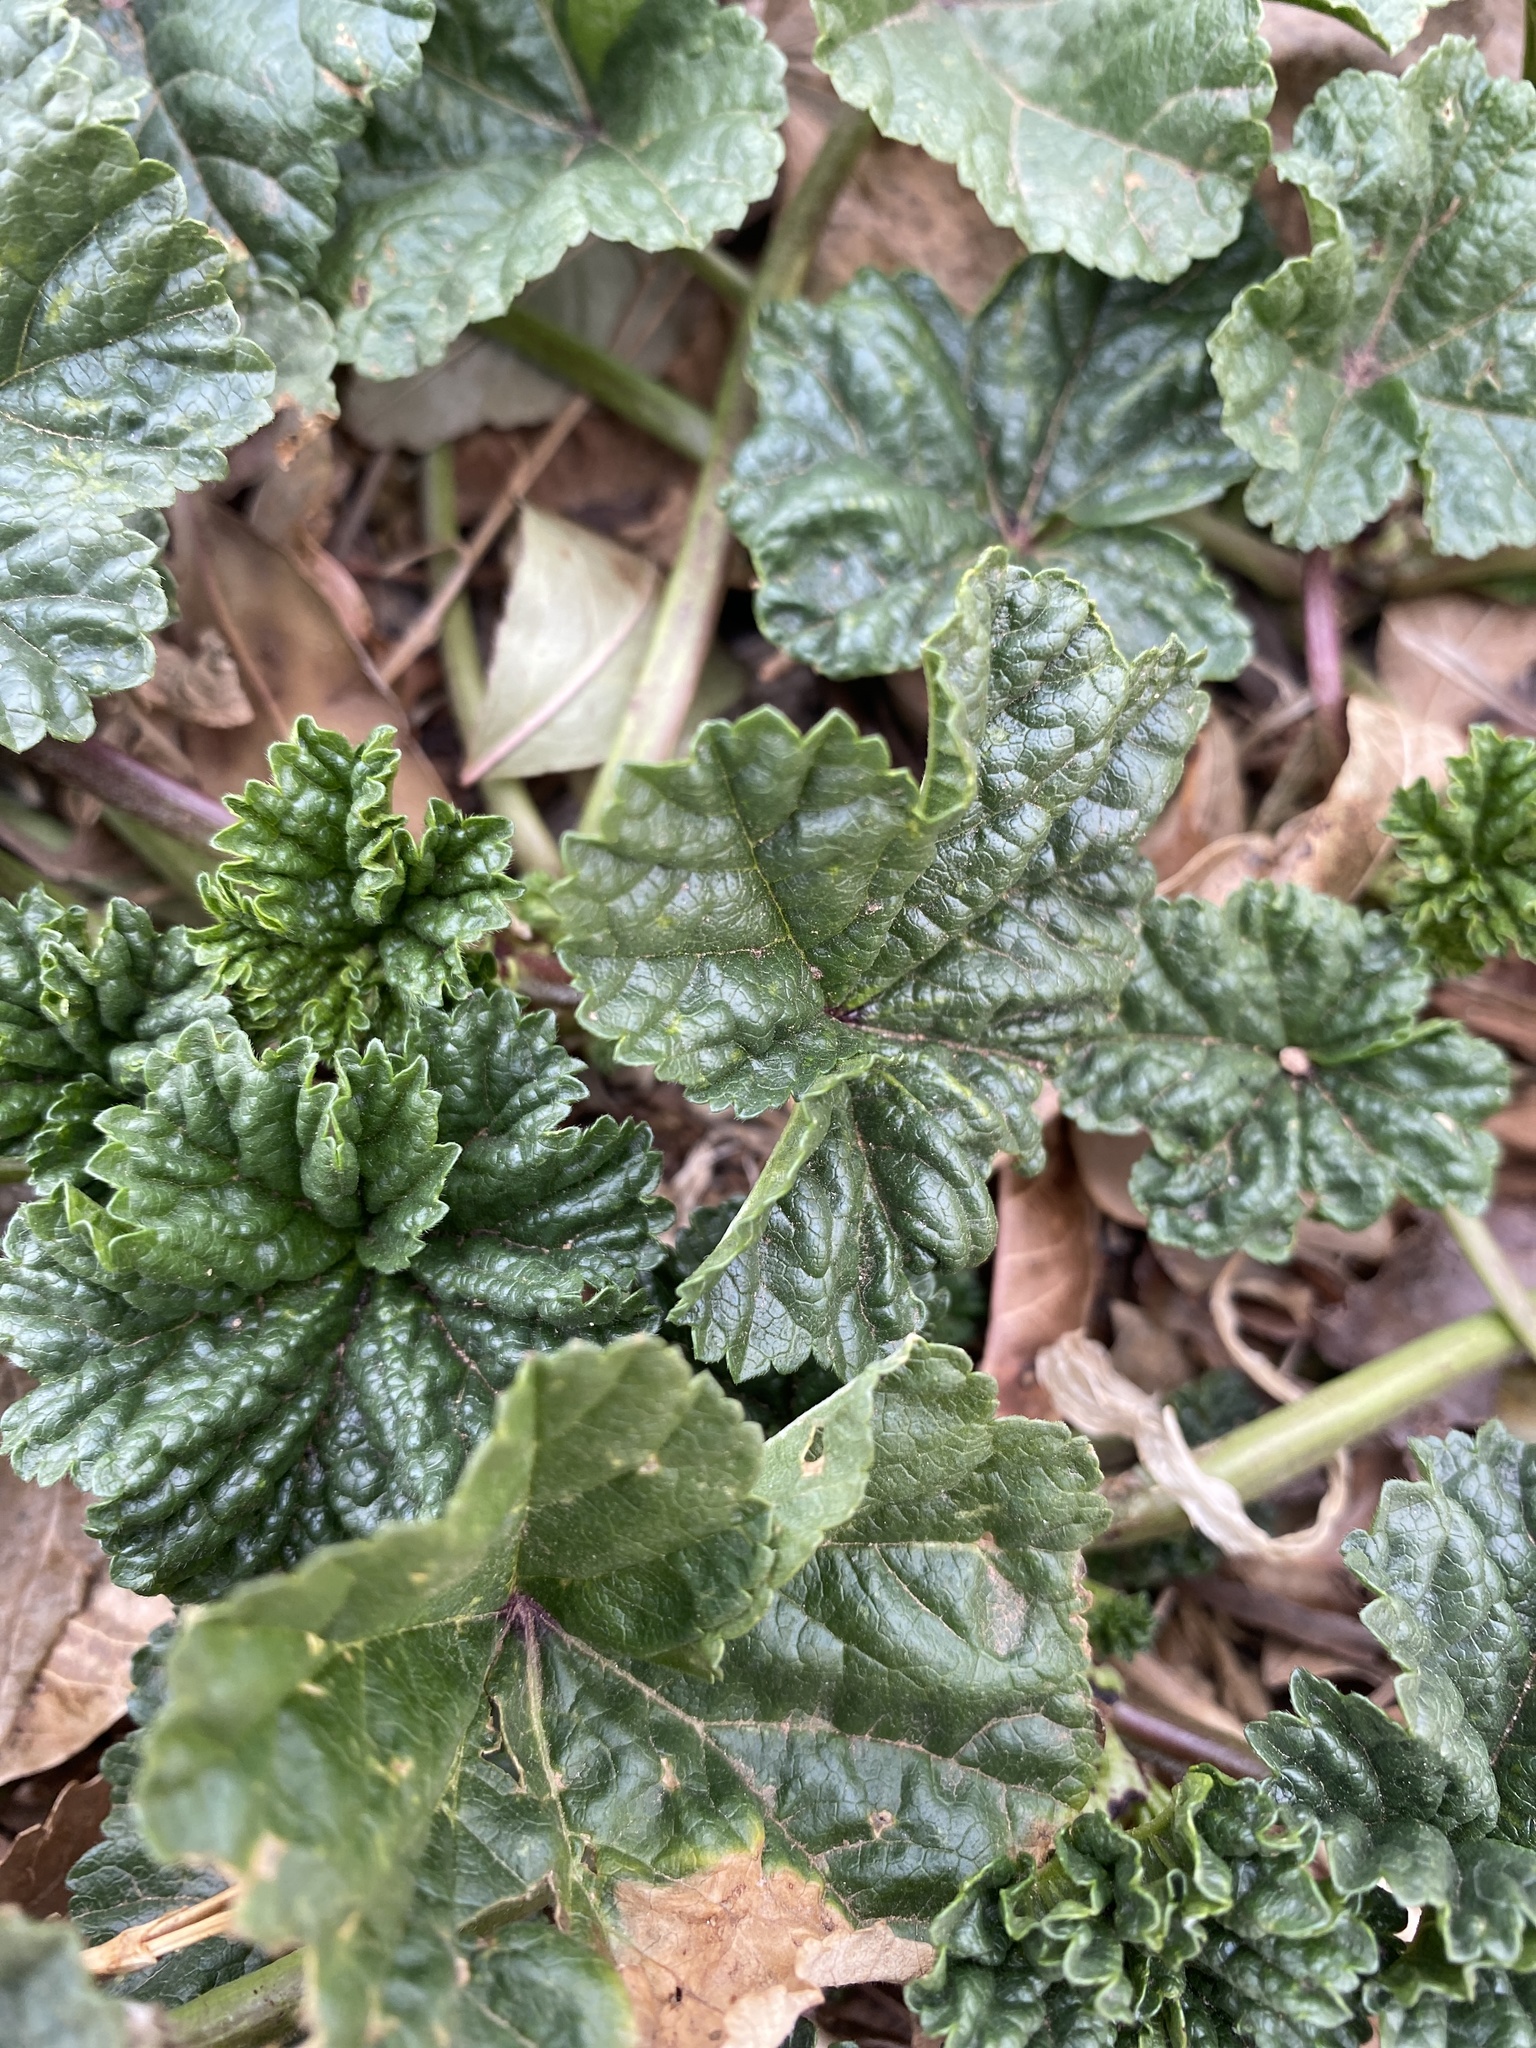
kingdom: Plantae
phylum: Tracheophyta
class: Magnoliopsida
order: Malvales
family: Malvaceae
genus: Malva
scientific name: Malva neglecta
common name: Common mallow
